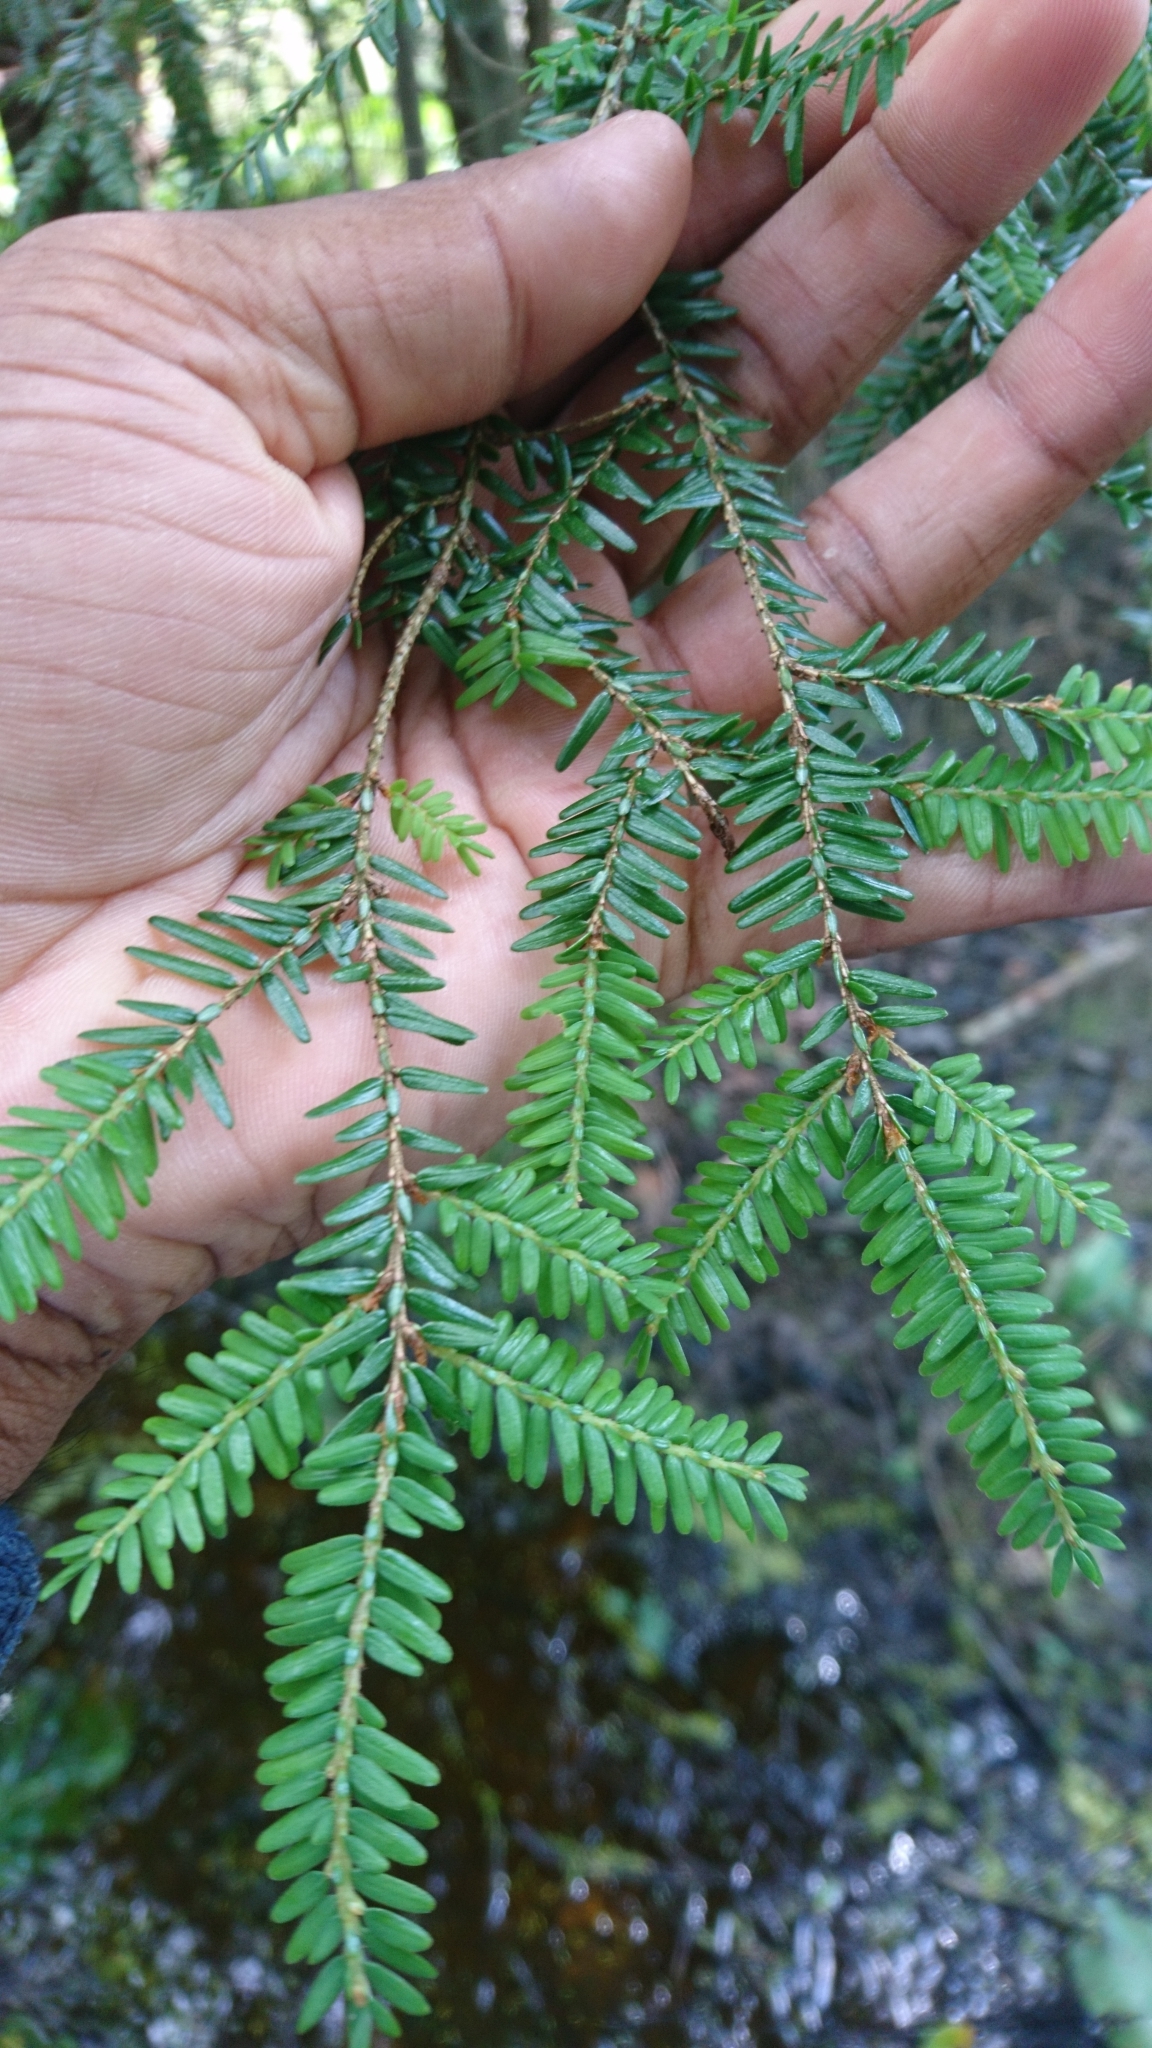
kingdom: Plantae
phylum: Tracheophyta
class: Pinopsida
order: Pinales
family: Pinaceae
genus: Tsuga
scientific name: Tsuga canadensis
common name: Eastern hemlock
